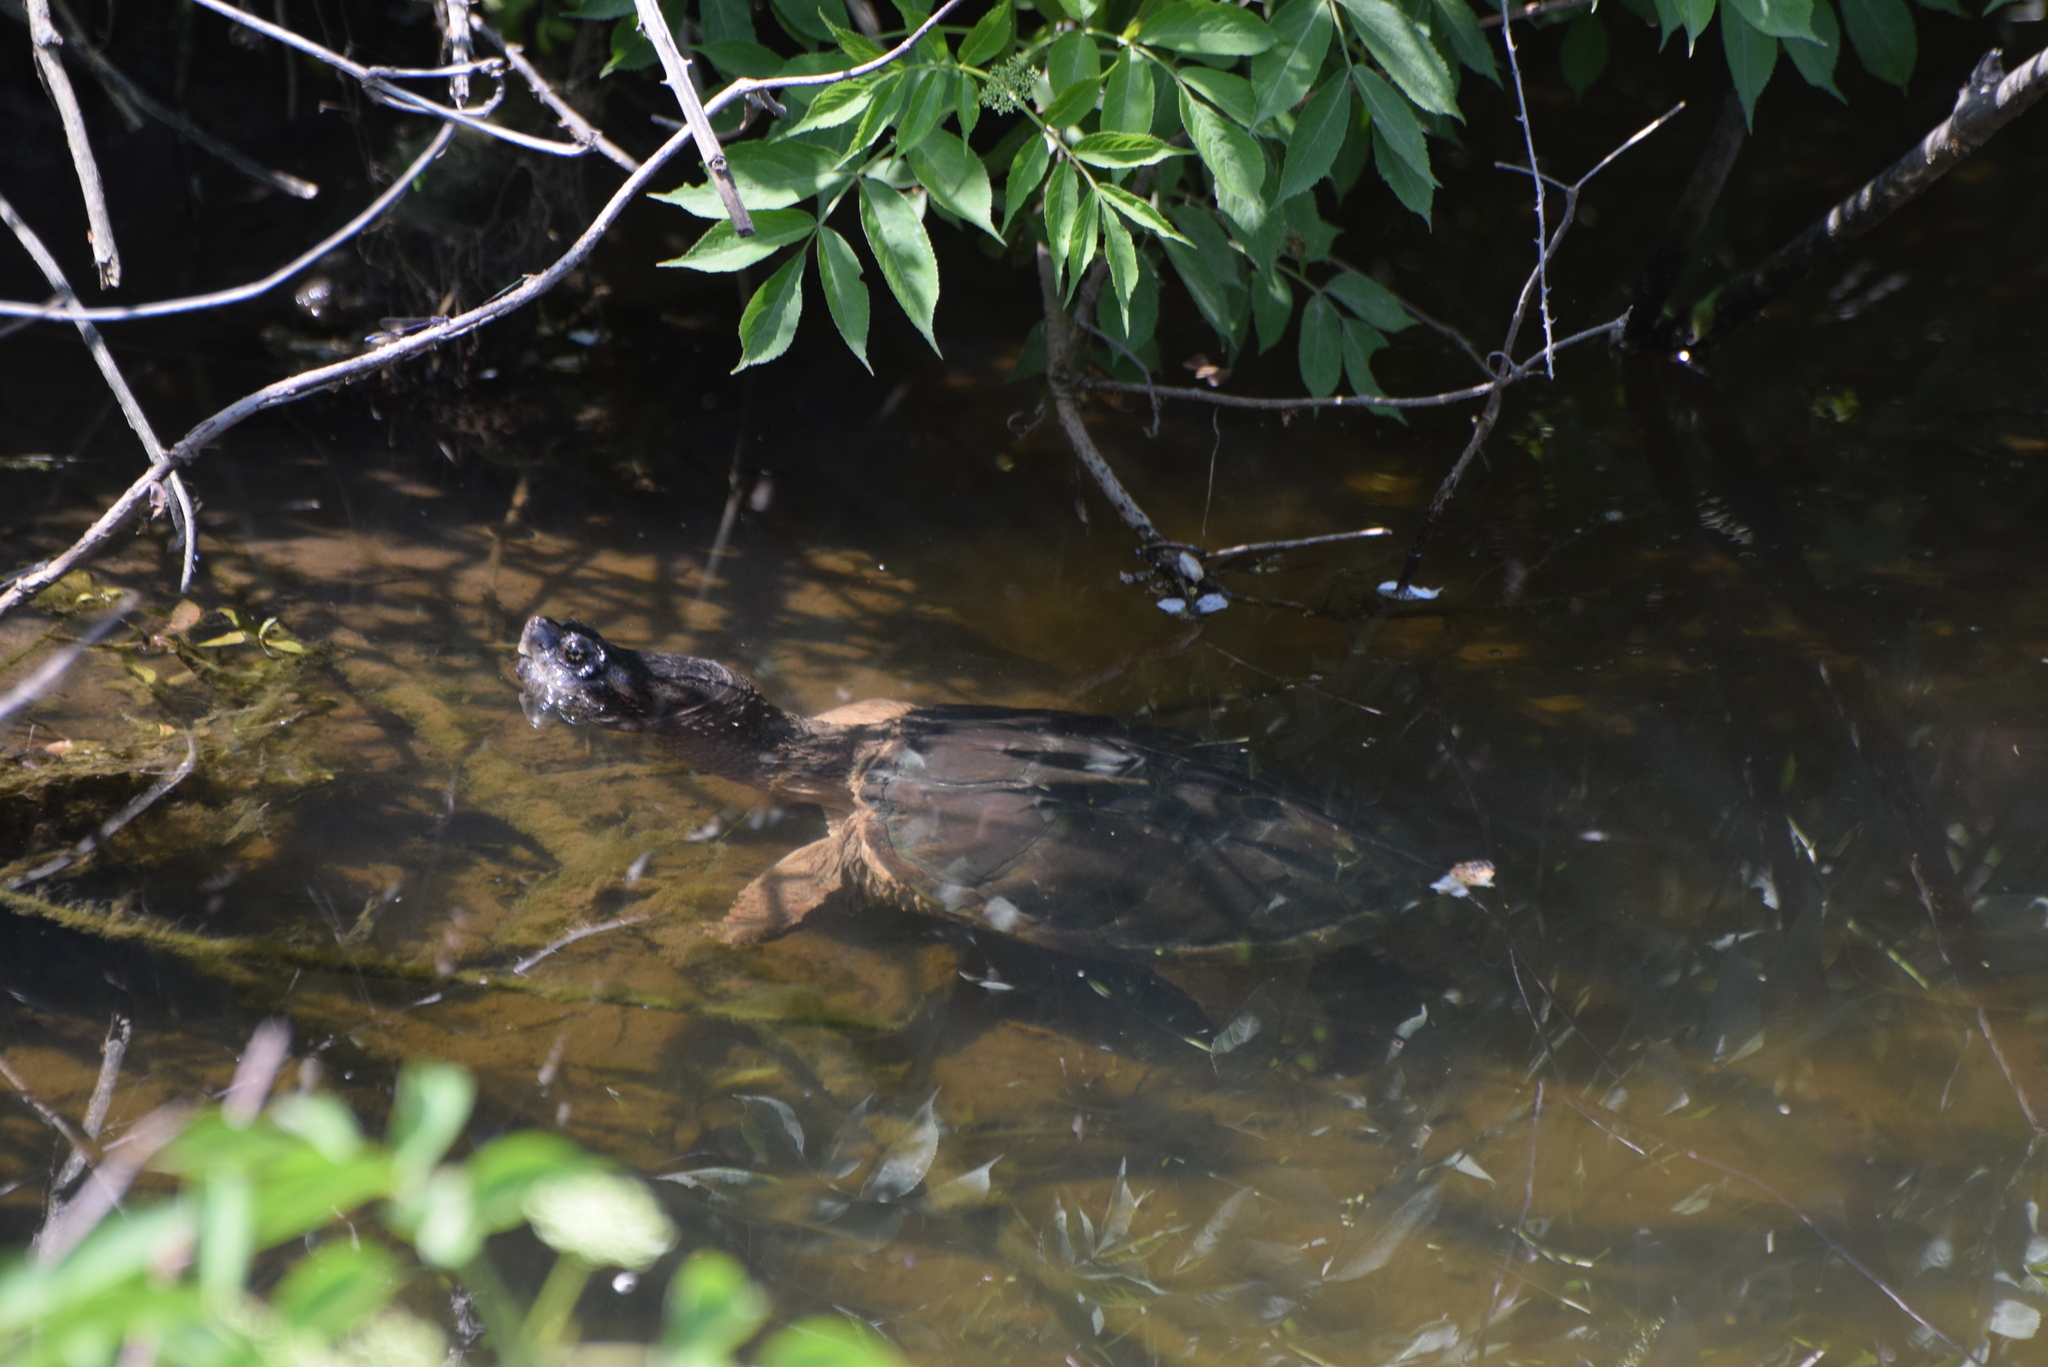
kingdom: Animalia
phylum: Chordata
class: Testudines
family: Chelydridae
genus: Chelydra
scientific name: Chelydra serpentina
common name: Common snapping turtle
